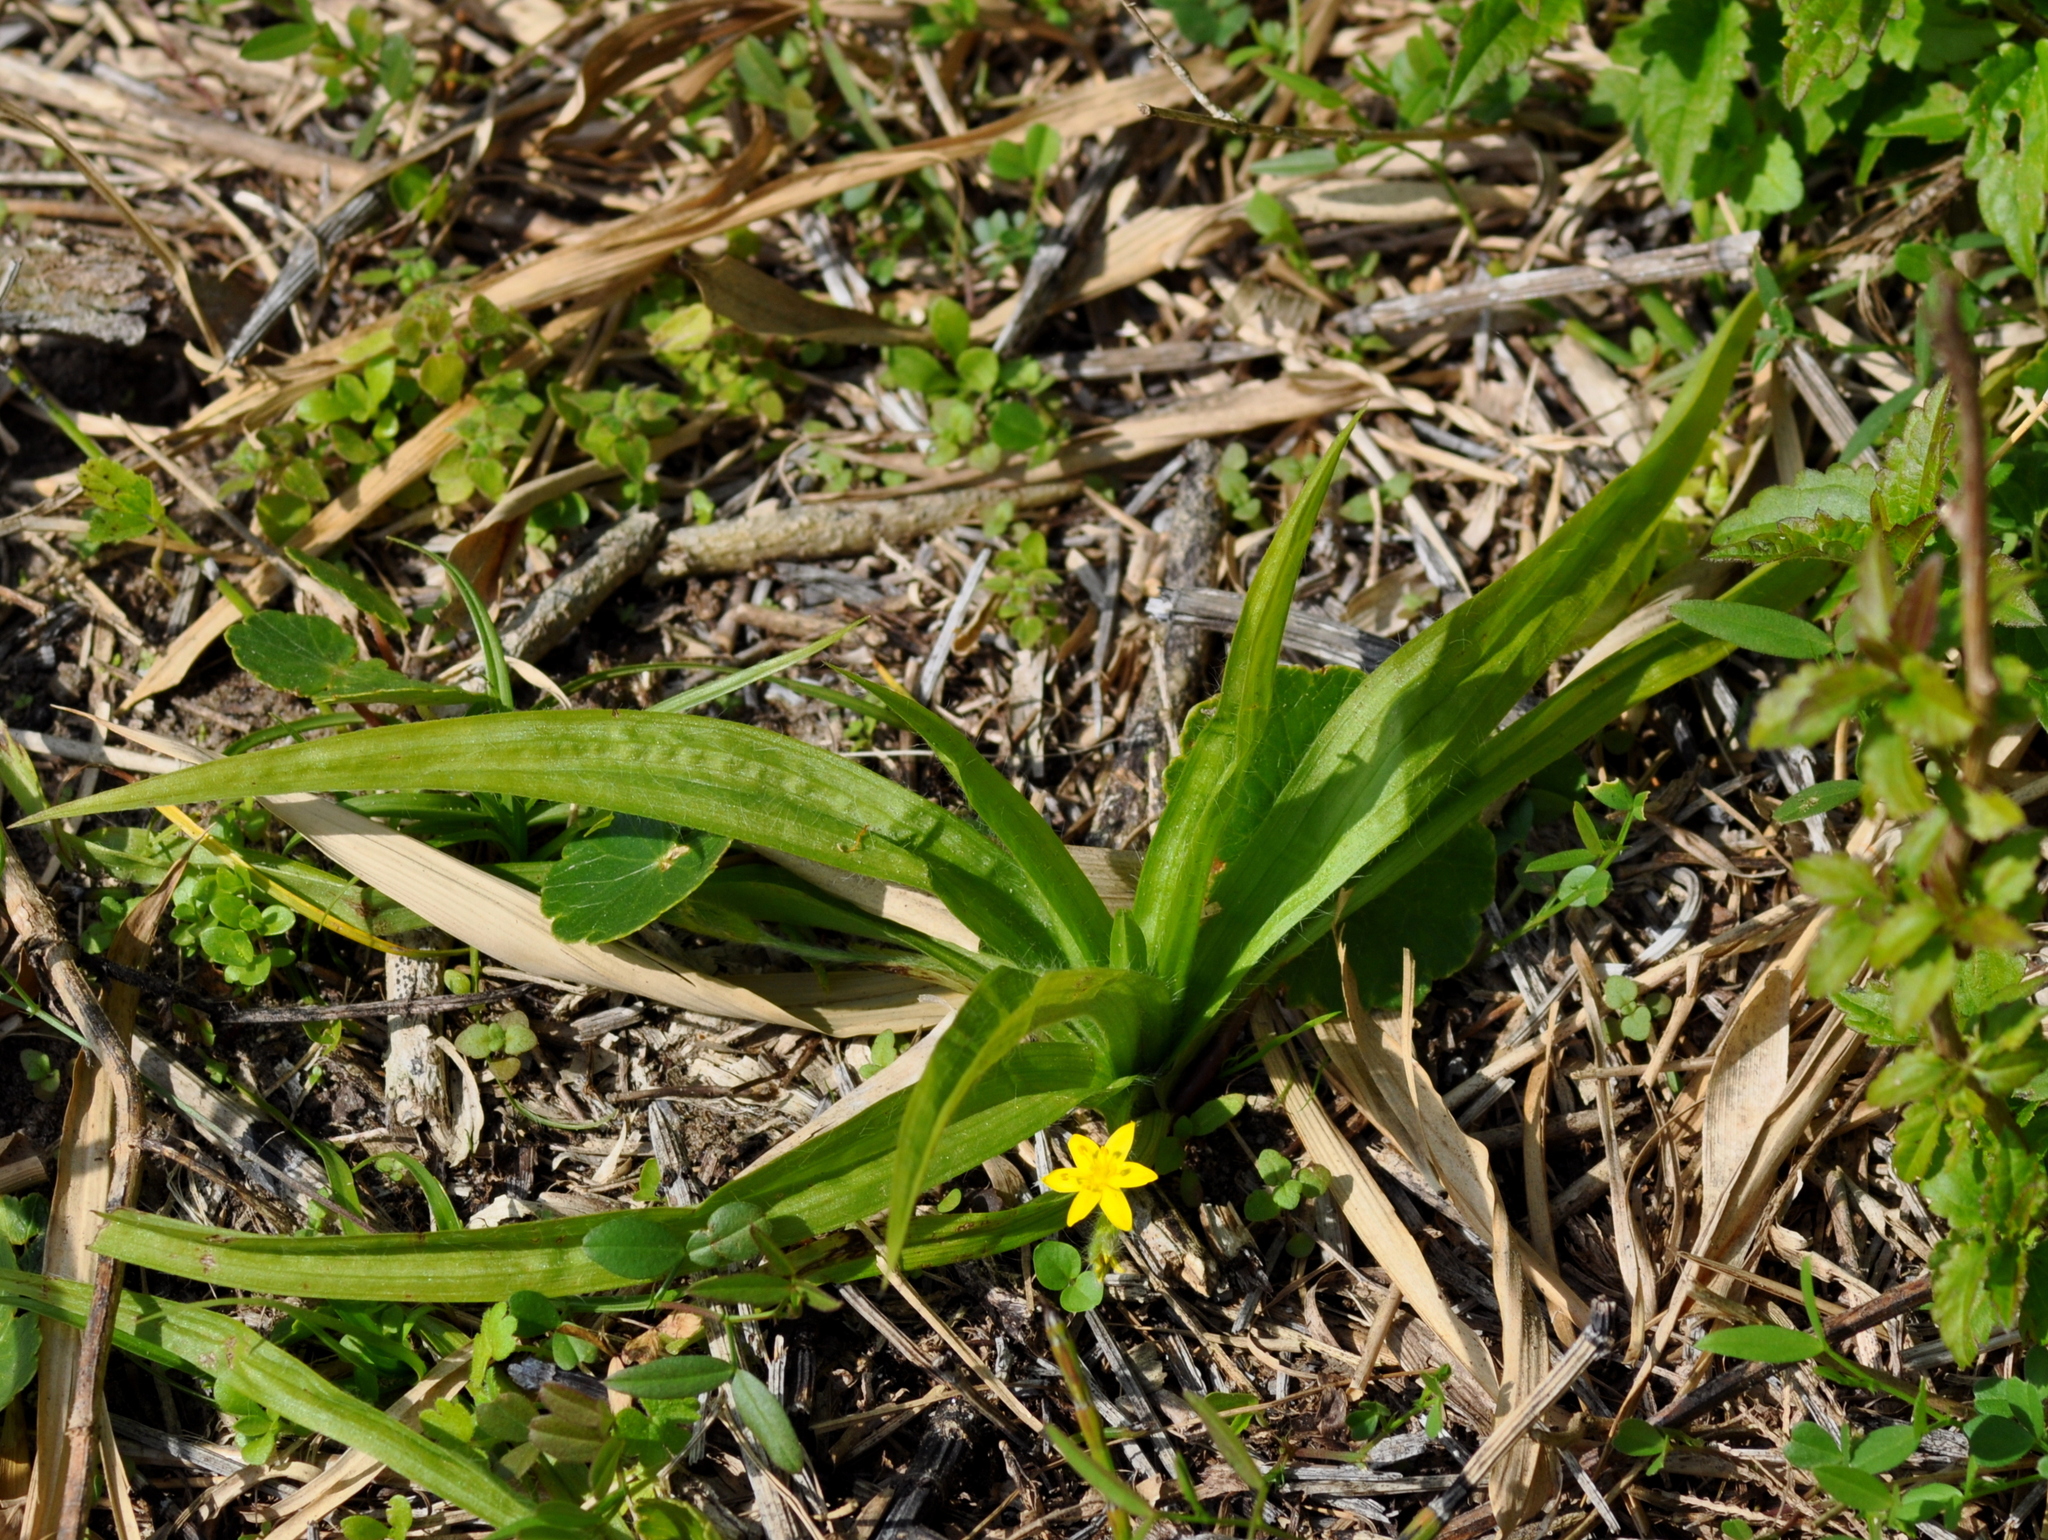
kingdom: Plantae
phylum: Tracheophyta
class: Liliopsida
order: Asparagales
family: Hypoxidaceae
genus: Hypoxis
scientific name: Hypoxis decumbens
